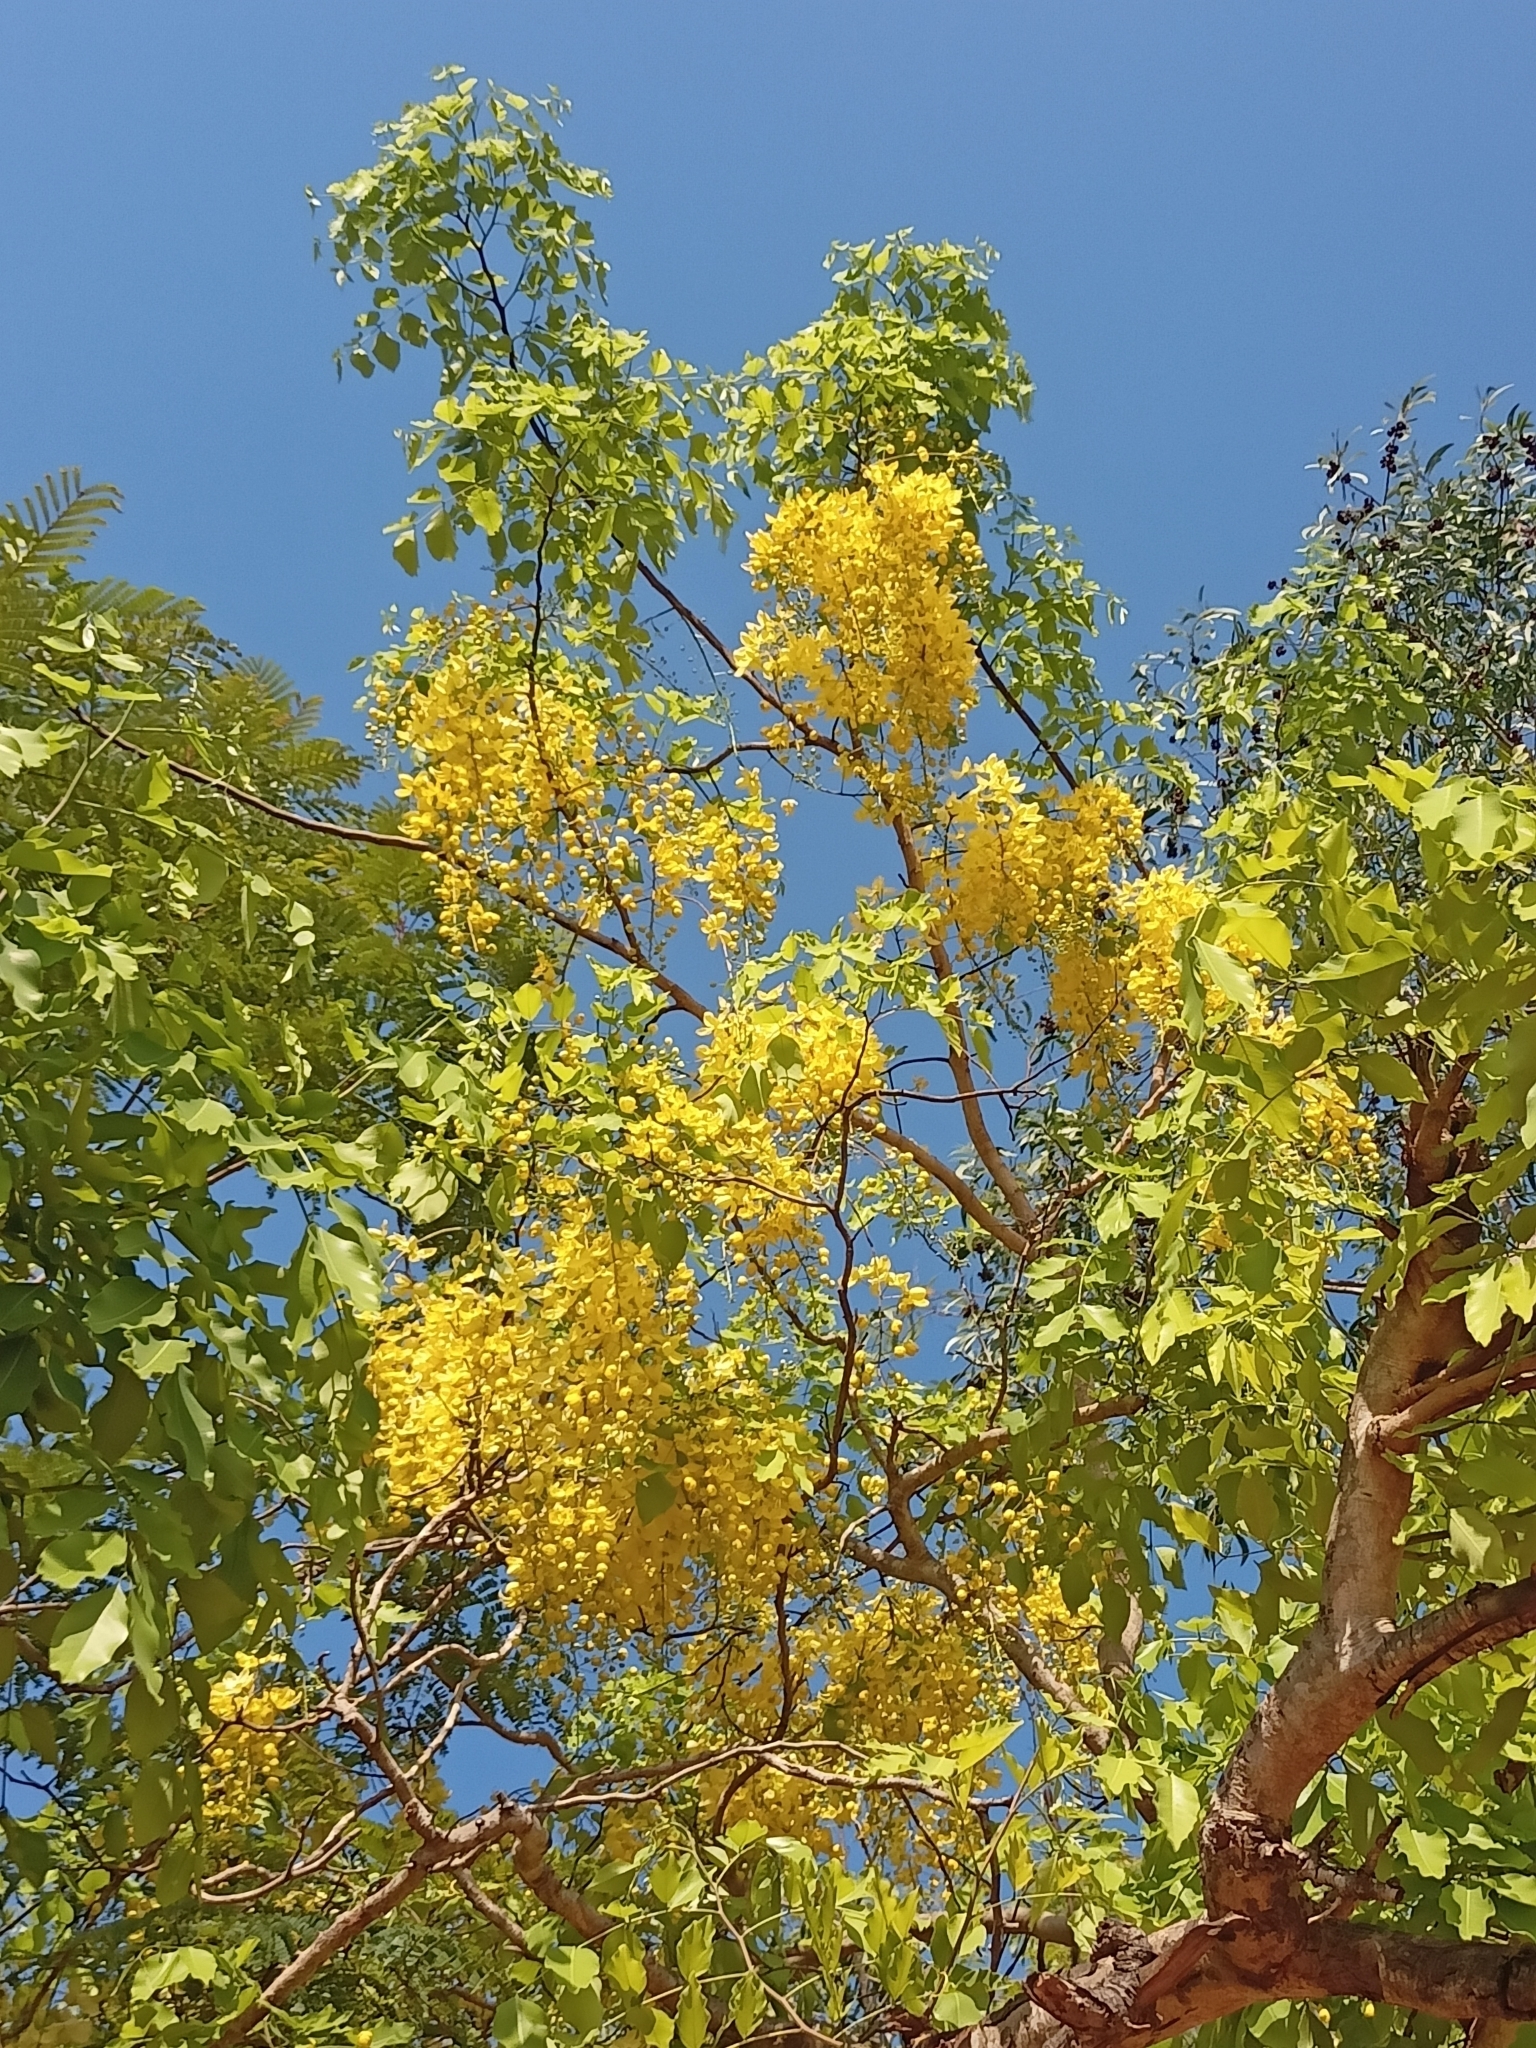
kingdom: Plantae
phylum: Tracheophyta
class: Magnoliopsida
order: Fabales
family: Fabaceae
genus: Cassia
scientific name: Cassia fistula
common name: Golden shower
